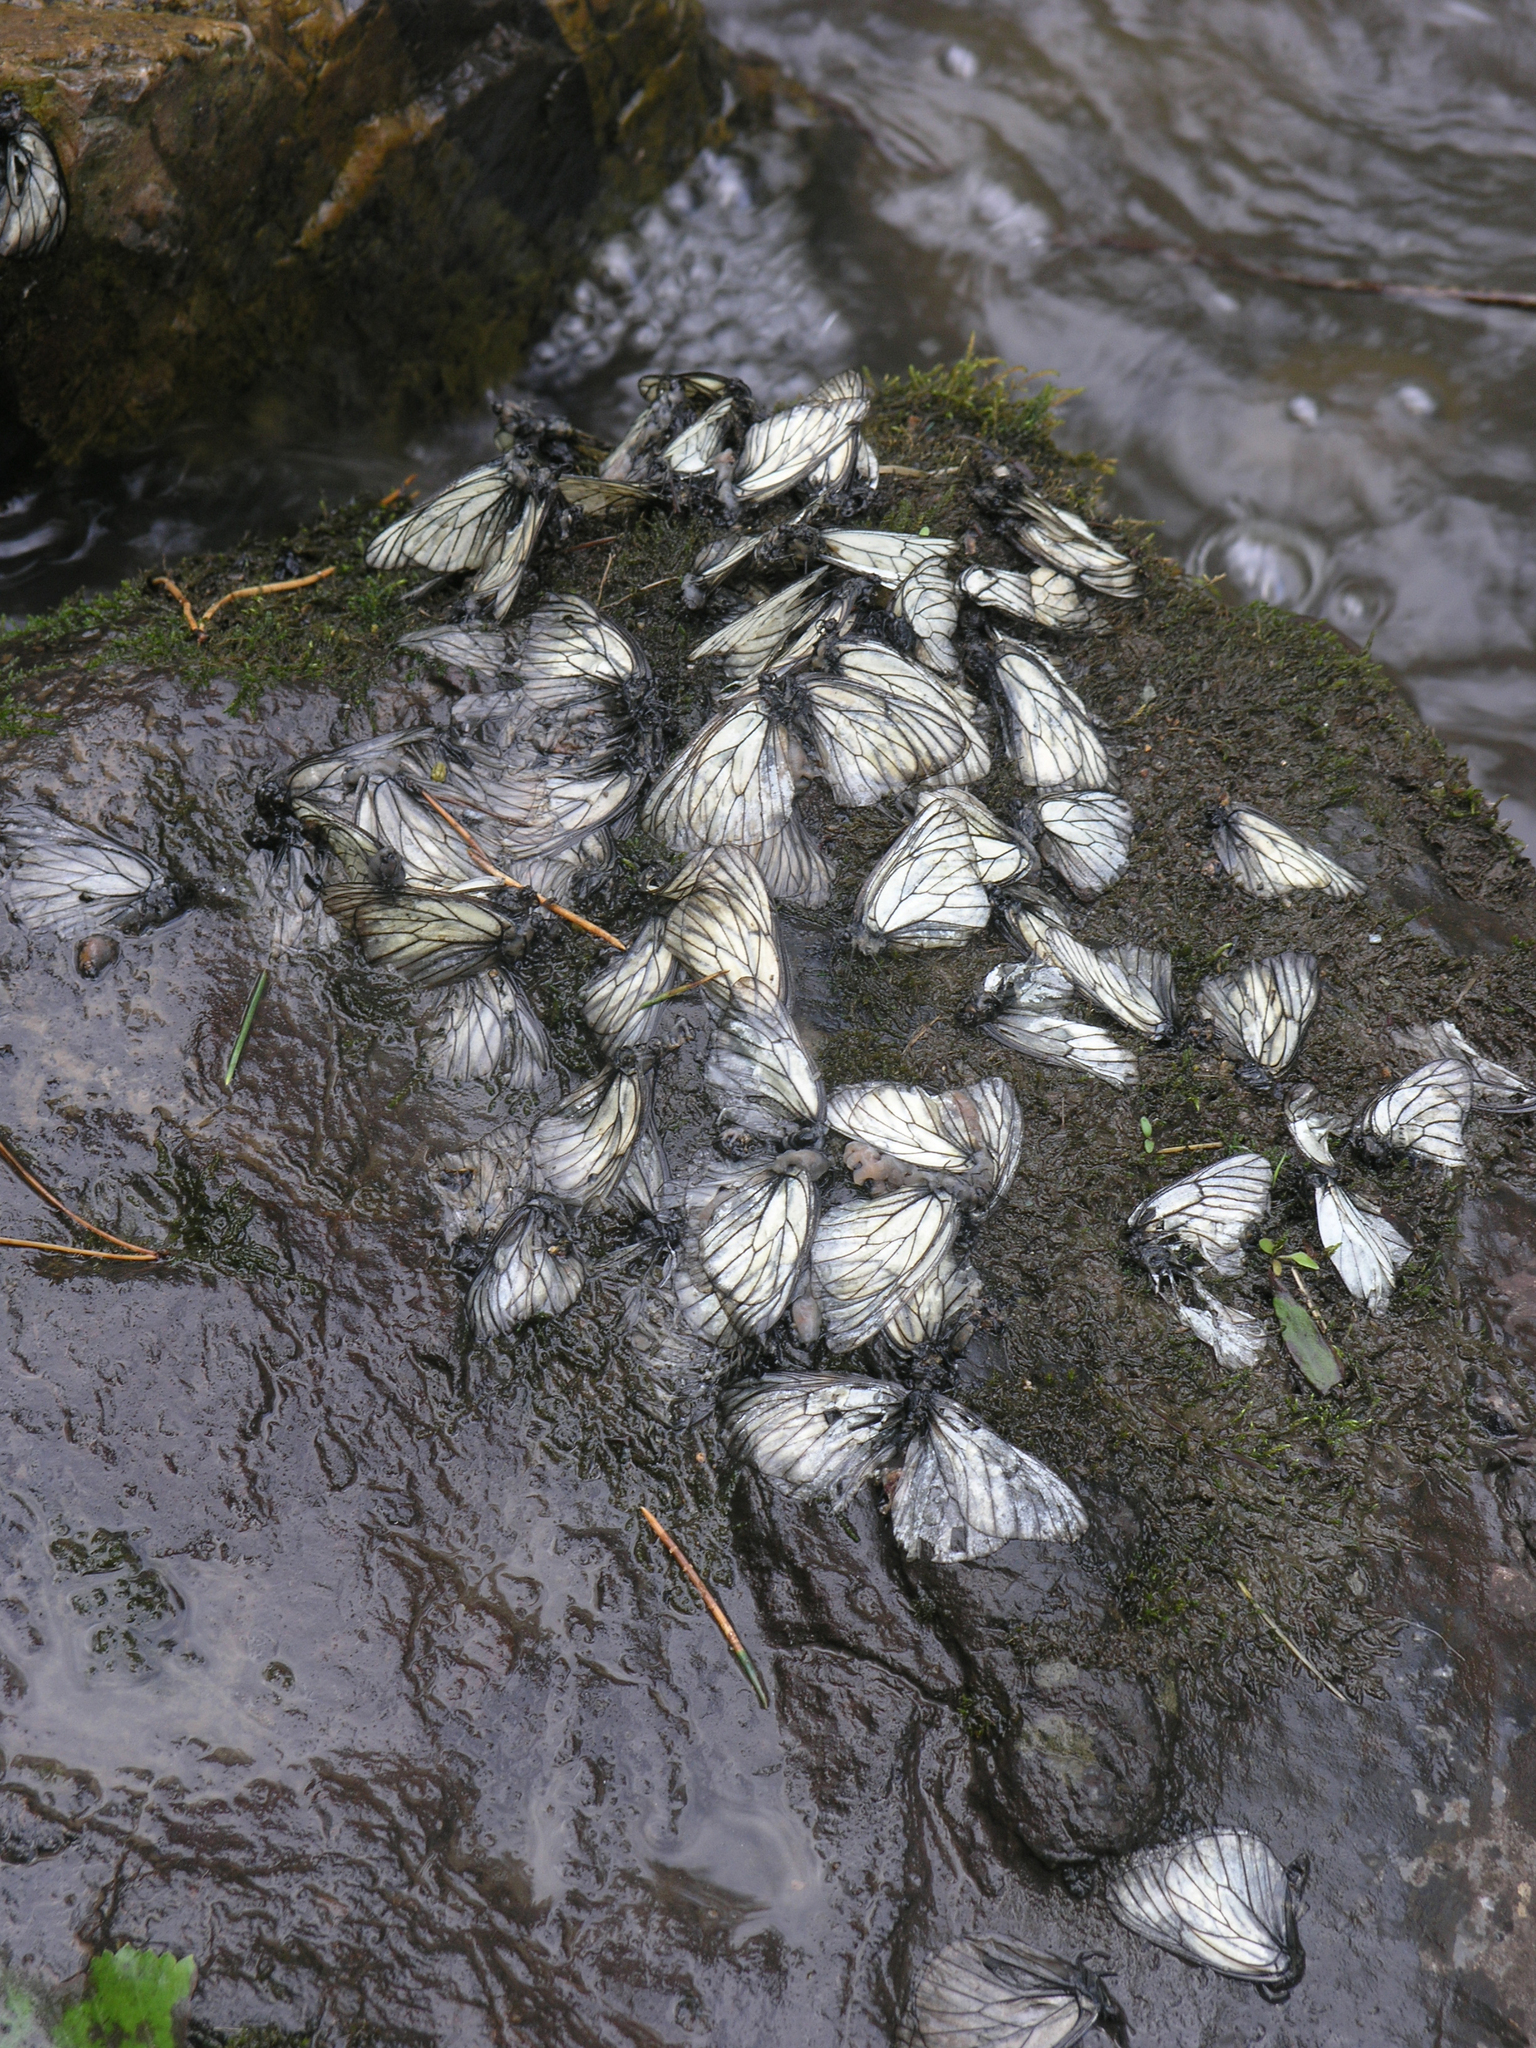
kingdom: Animalia
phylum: Arthropoda
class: Insecta
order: Lepidoptera
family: Pieridae
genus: Aporia
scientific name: Aporia crataegi
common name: Black-veined white
